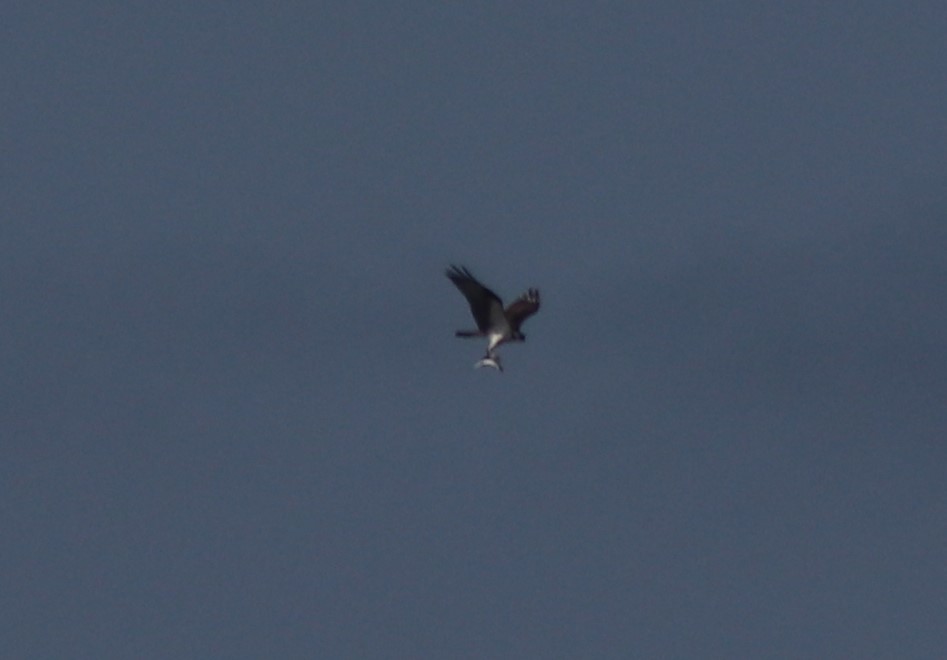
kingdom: Animalia
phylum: Chordata
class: Aves
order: Accipitriformes
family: Pandionidae
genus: Pandion
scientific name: Pandion haliaetus
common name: Osprey
